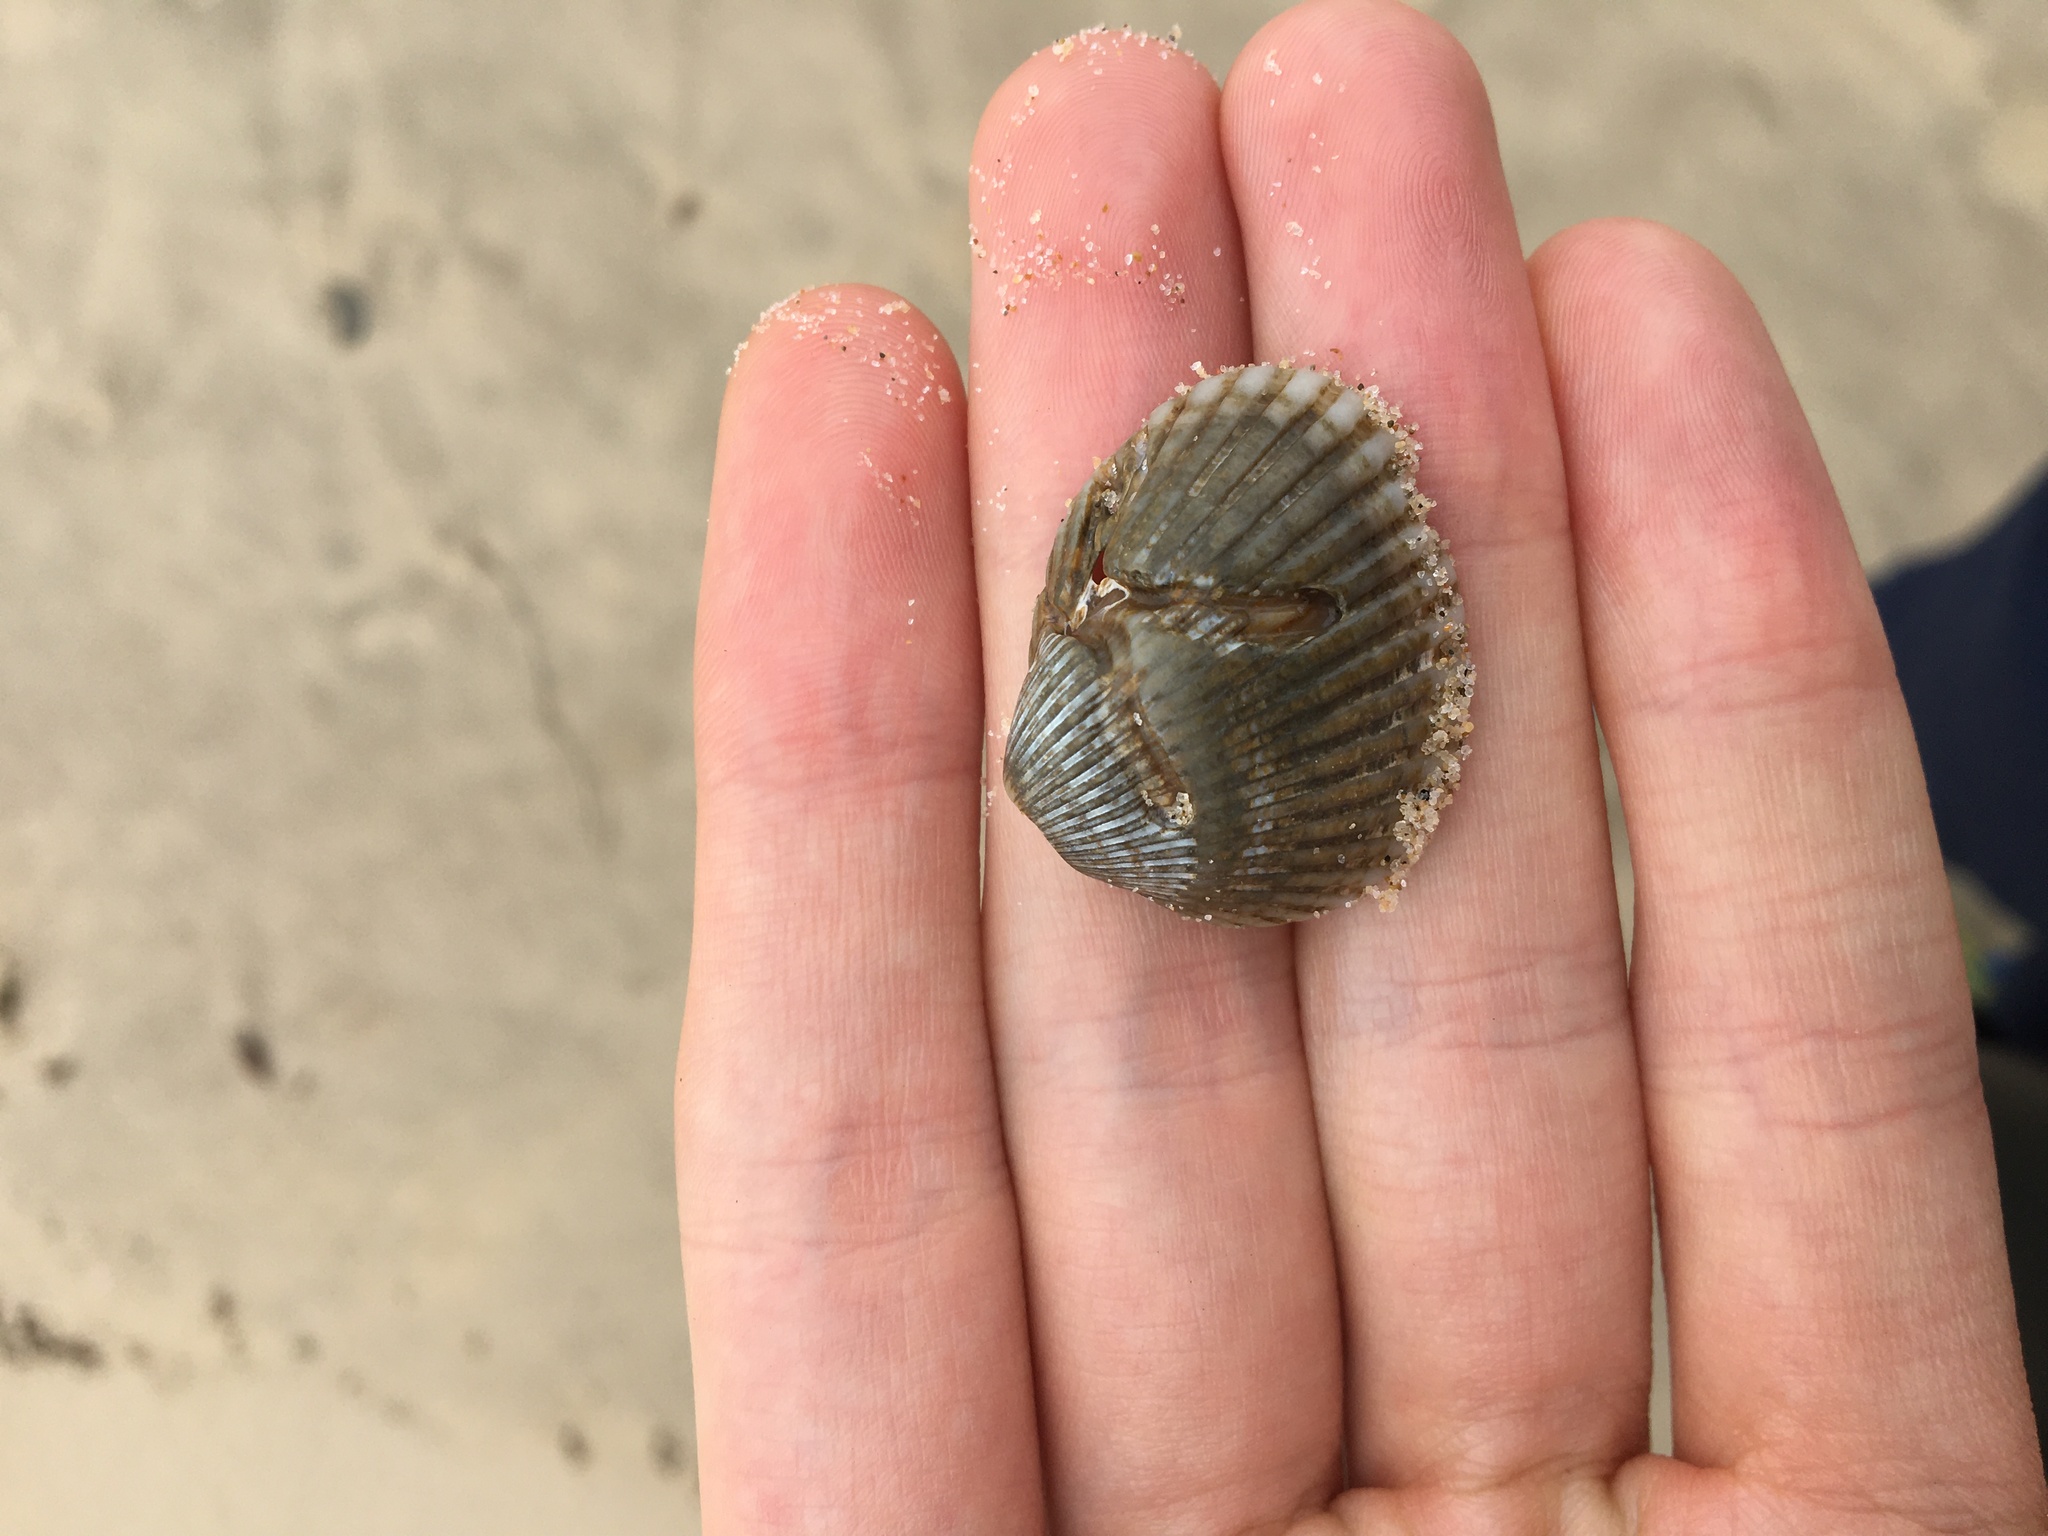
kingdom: Animalia
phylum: Mollusca
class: Bivalvia
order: Arcida
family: Arcidae
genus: Anadara
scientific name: Anadara trapezia
